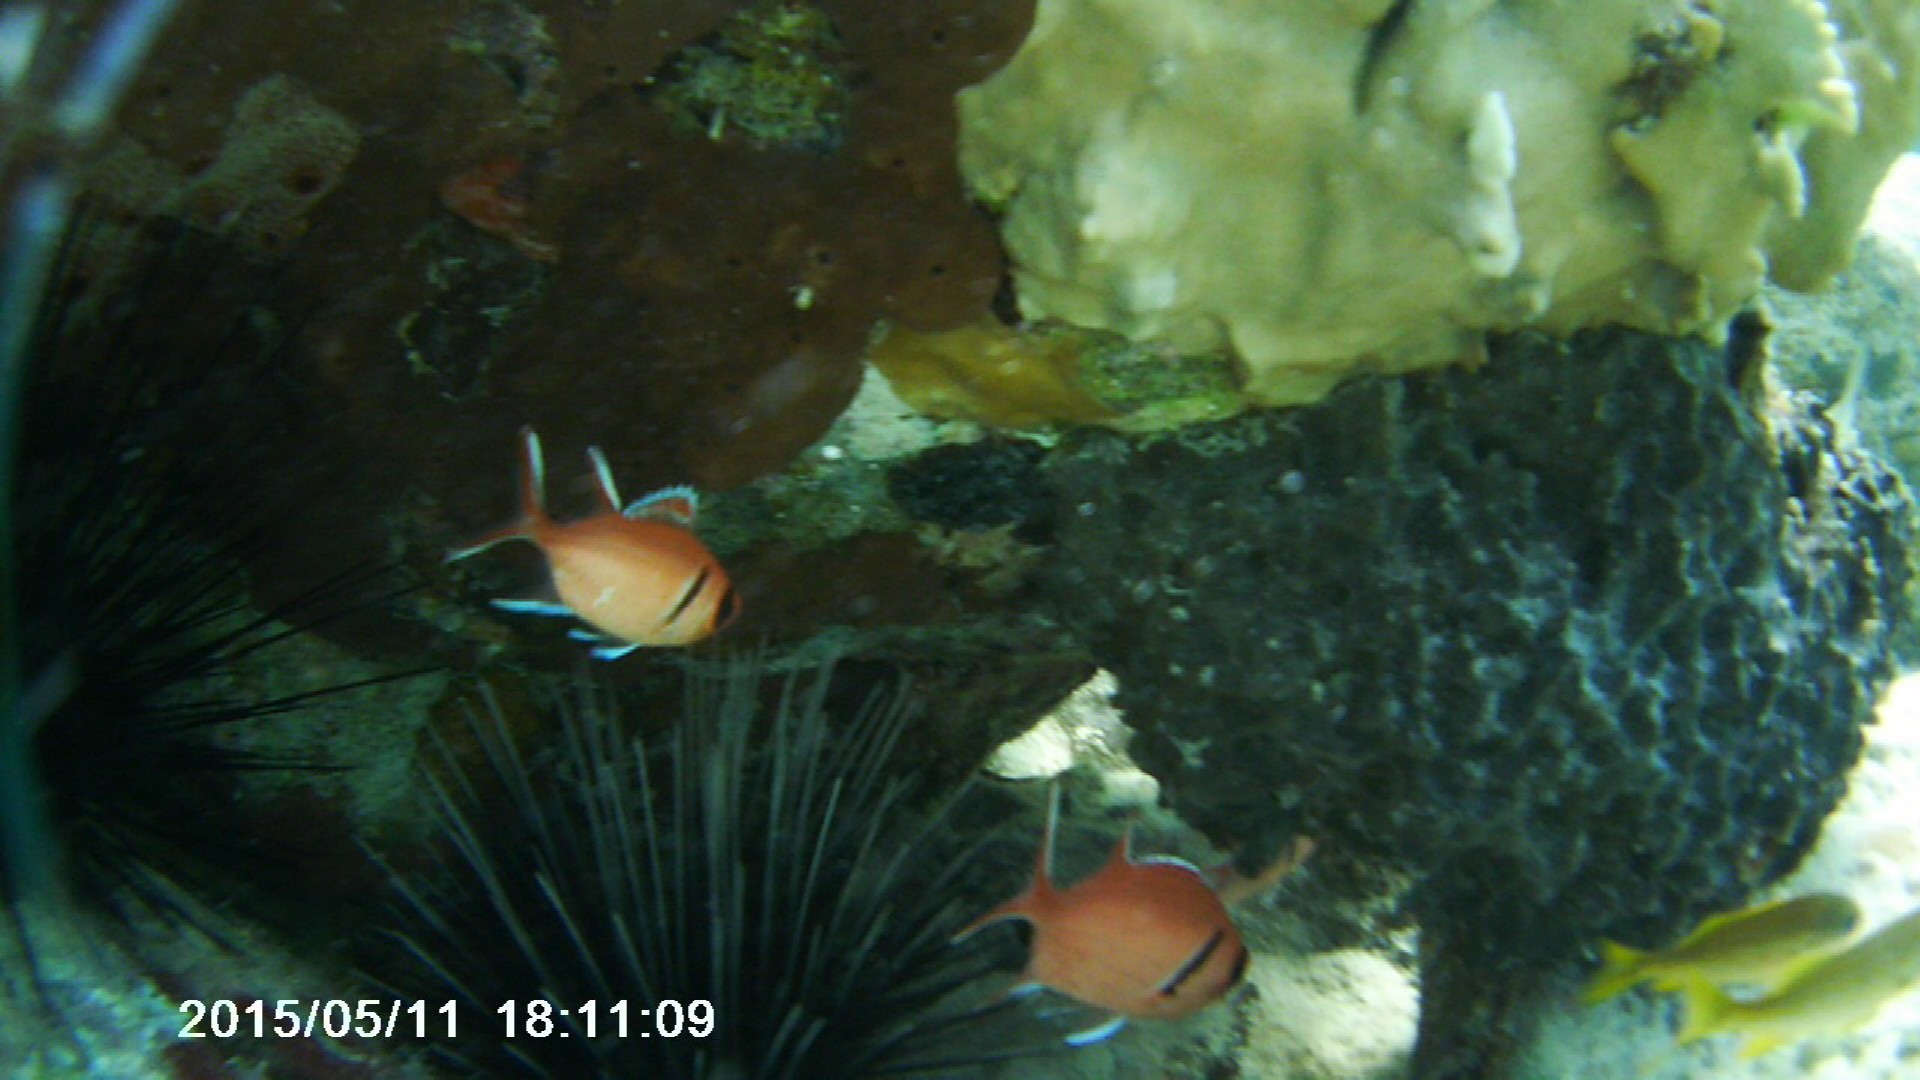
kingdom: Animalia
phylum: Chordata
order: Beryciformes
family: Holocentridae
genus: Myripristis
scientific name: Myripristis jacobus
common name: Blackbar soldierfish
